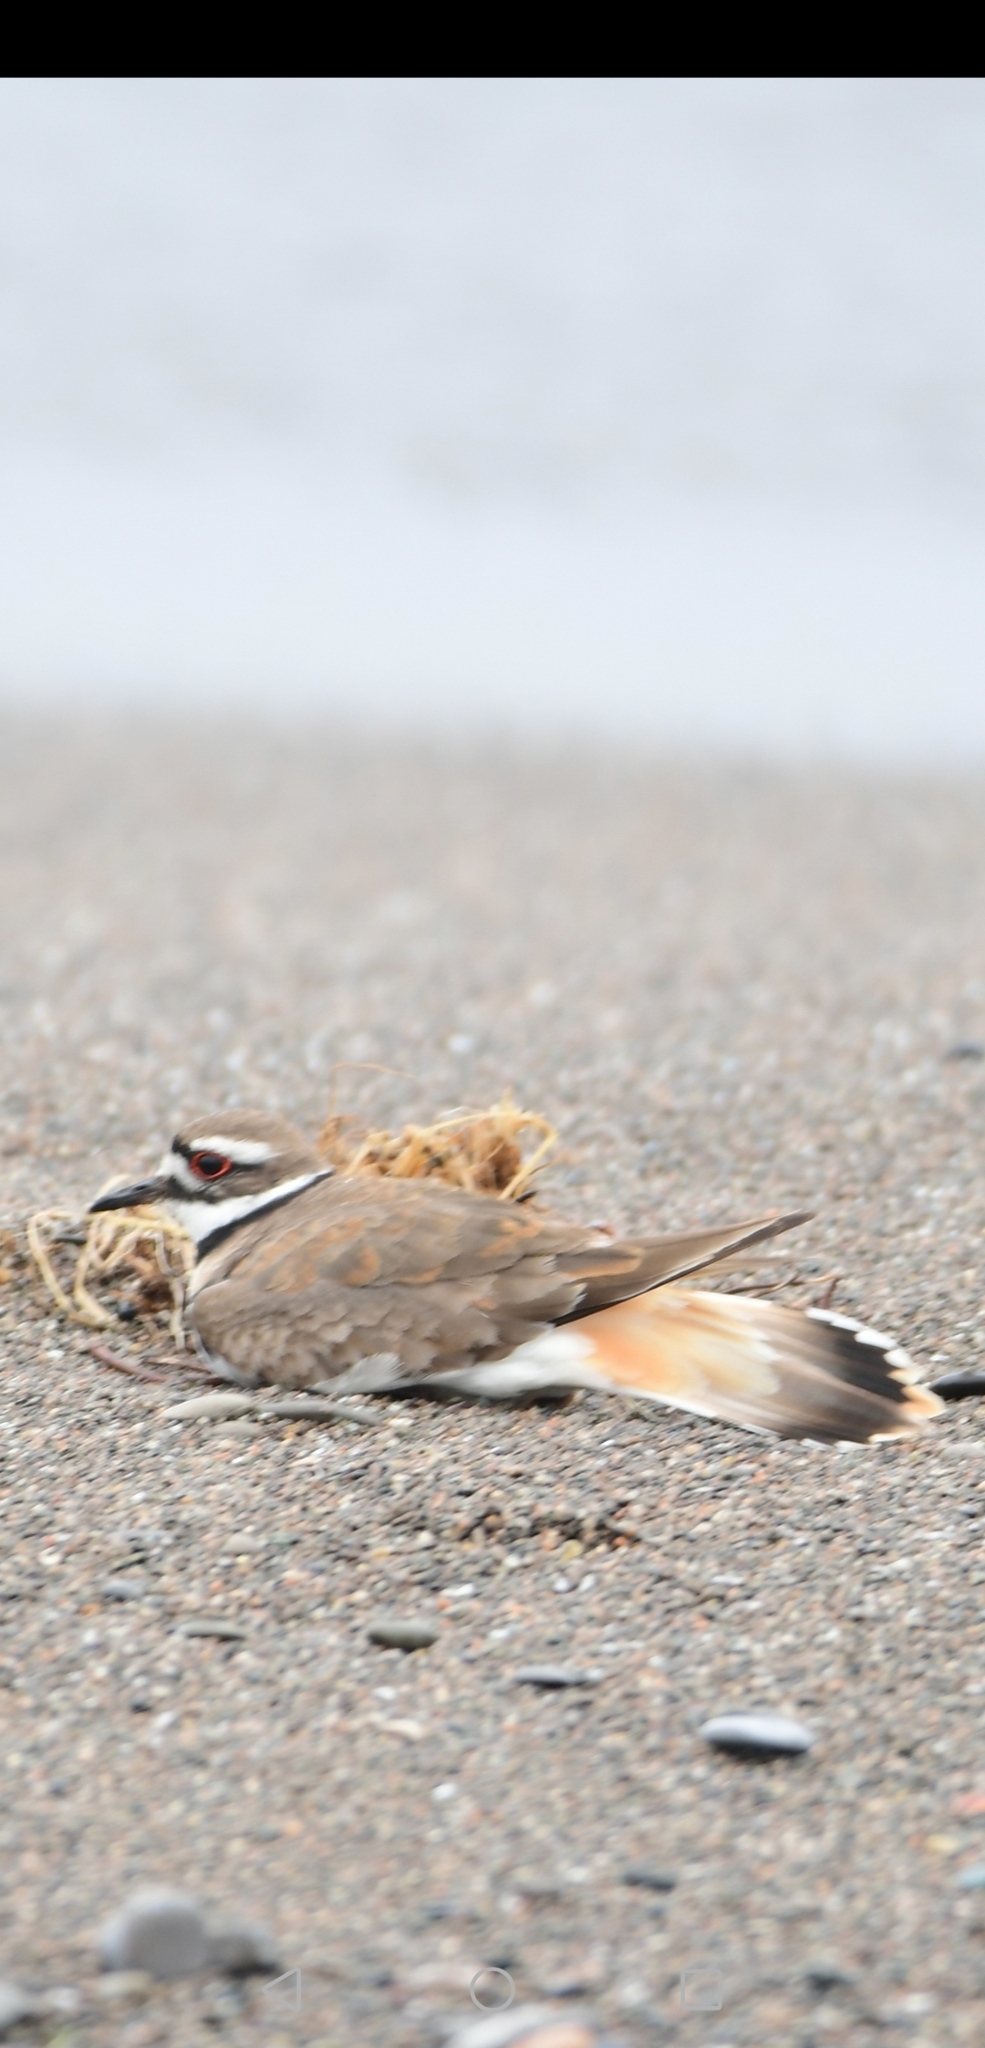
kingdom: Animalia
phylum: Chordata
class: Aves
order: Charadriiformes
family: Charadriidae
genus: Charadrius
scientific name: Charadrius vociferus
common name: Killdeer
